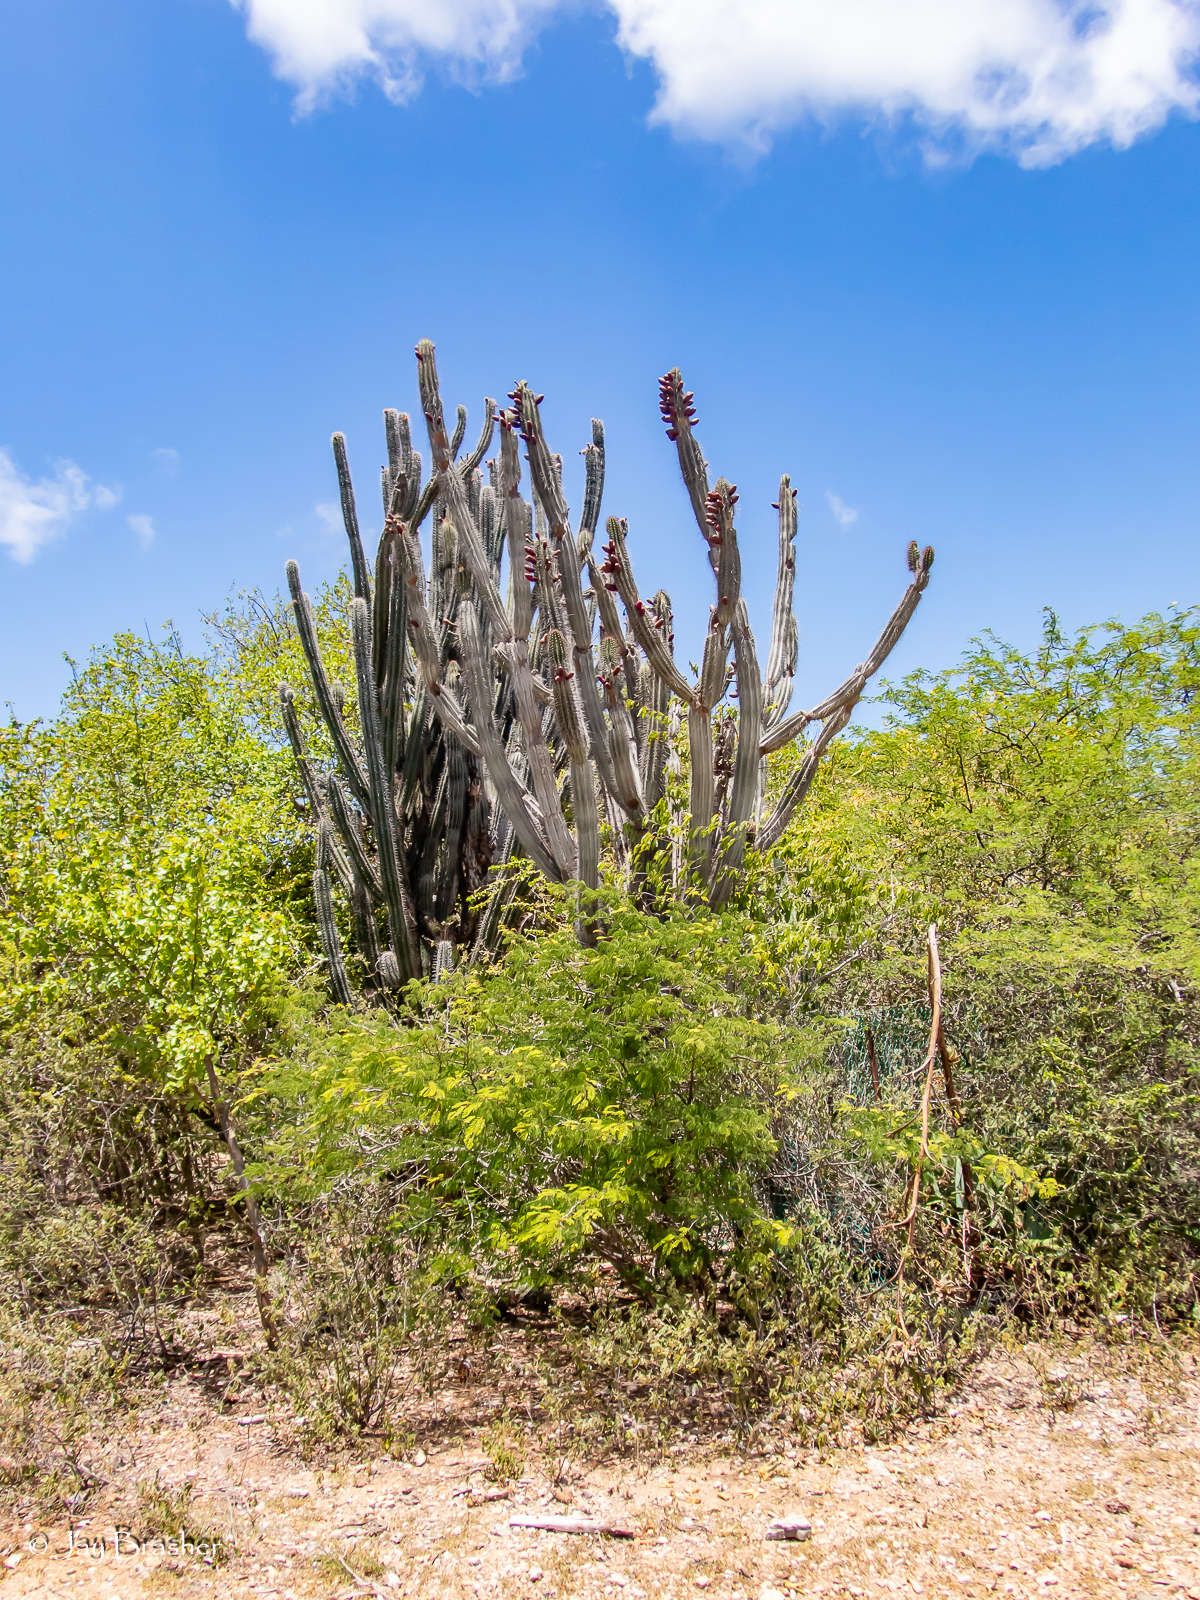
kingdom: Plantae
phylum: Tracheophyta
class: Magnoliopsida
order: Caryophyllales
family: Cactaceae
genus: Cereus
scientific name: Cereus repandus
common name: Sweetpotato cactus
